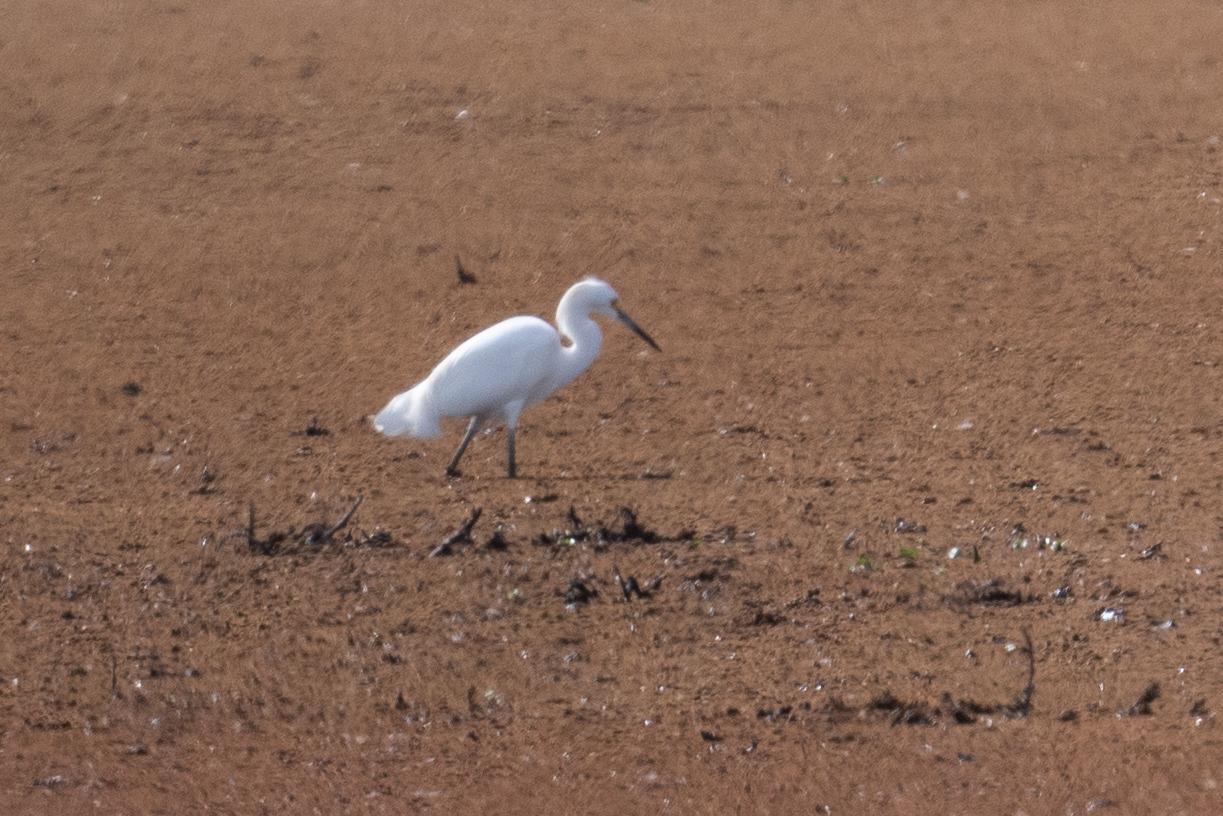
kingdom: Animalia
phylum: Chordata
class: Aves
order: Pelecaniformes
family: Ardeidae
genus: Egretta
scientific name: Egretta thula
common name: Snowy egret
